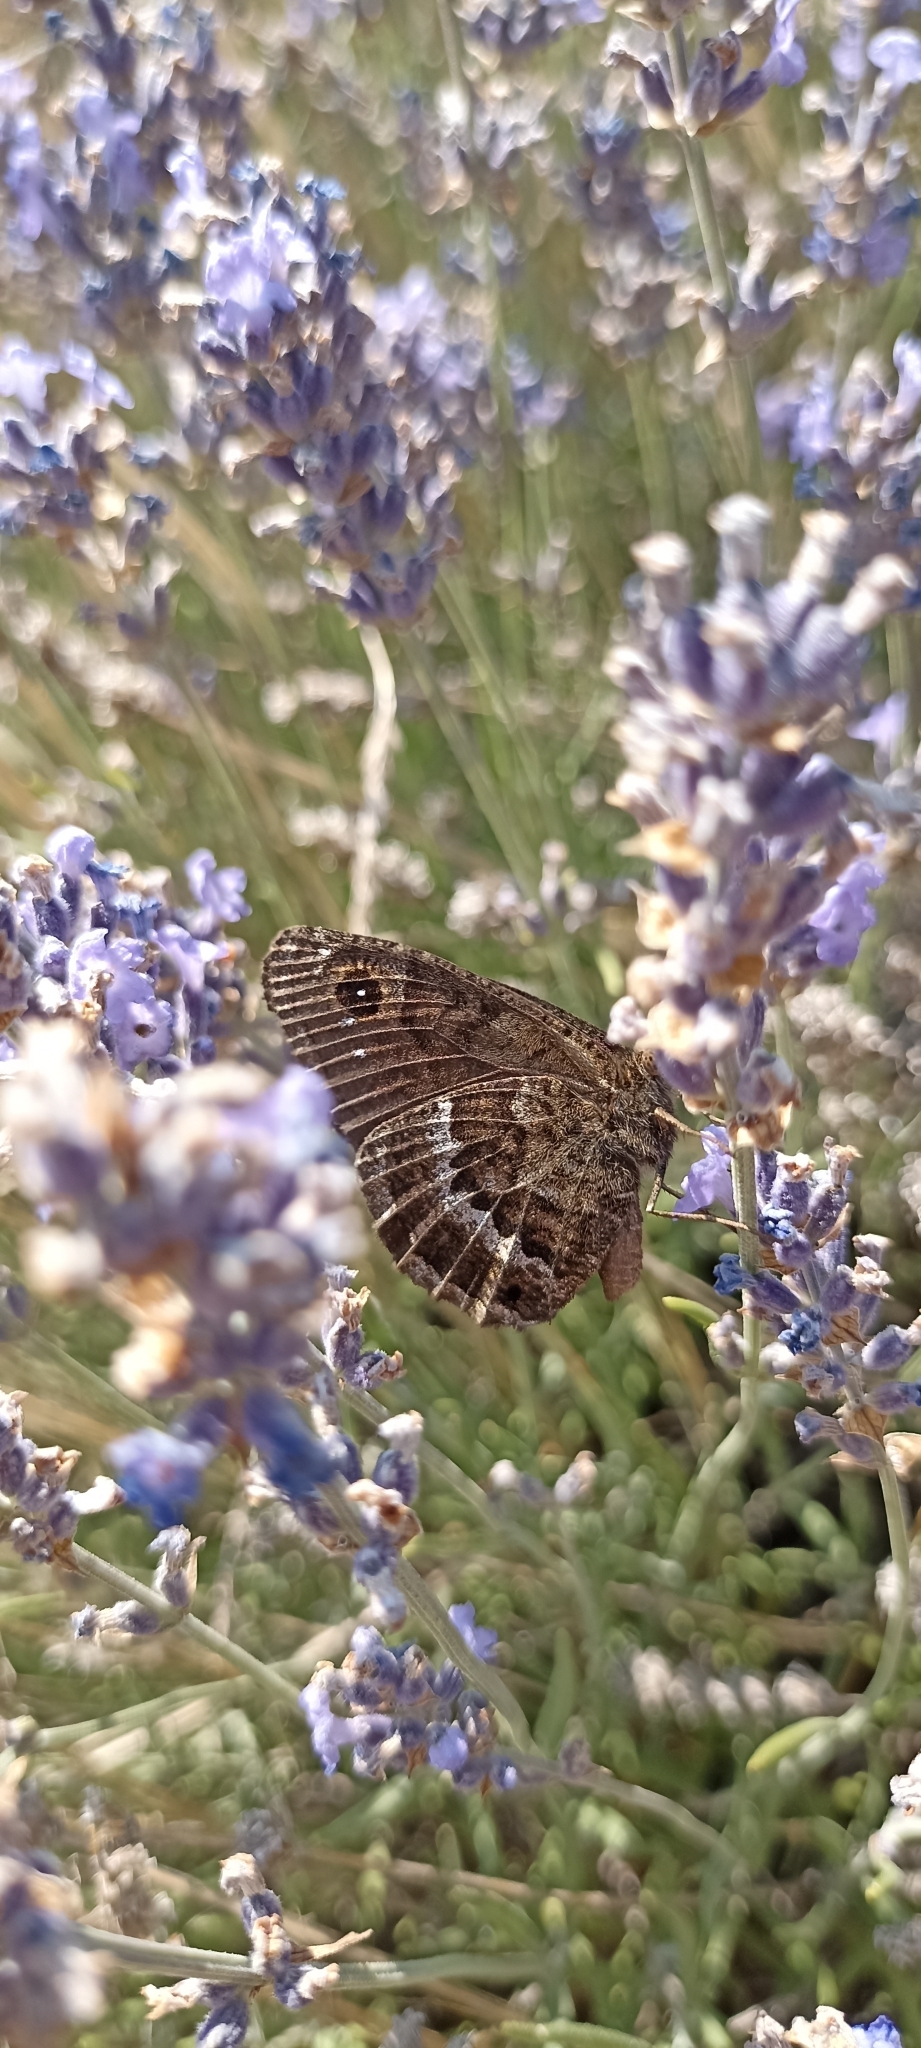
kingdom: Animalia
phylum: Arthropoda
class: Insecta
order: Lepidoptera
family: Nymphalidae
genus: Satyrus
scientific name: Satyrus actaea
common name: Black satyr
